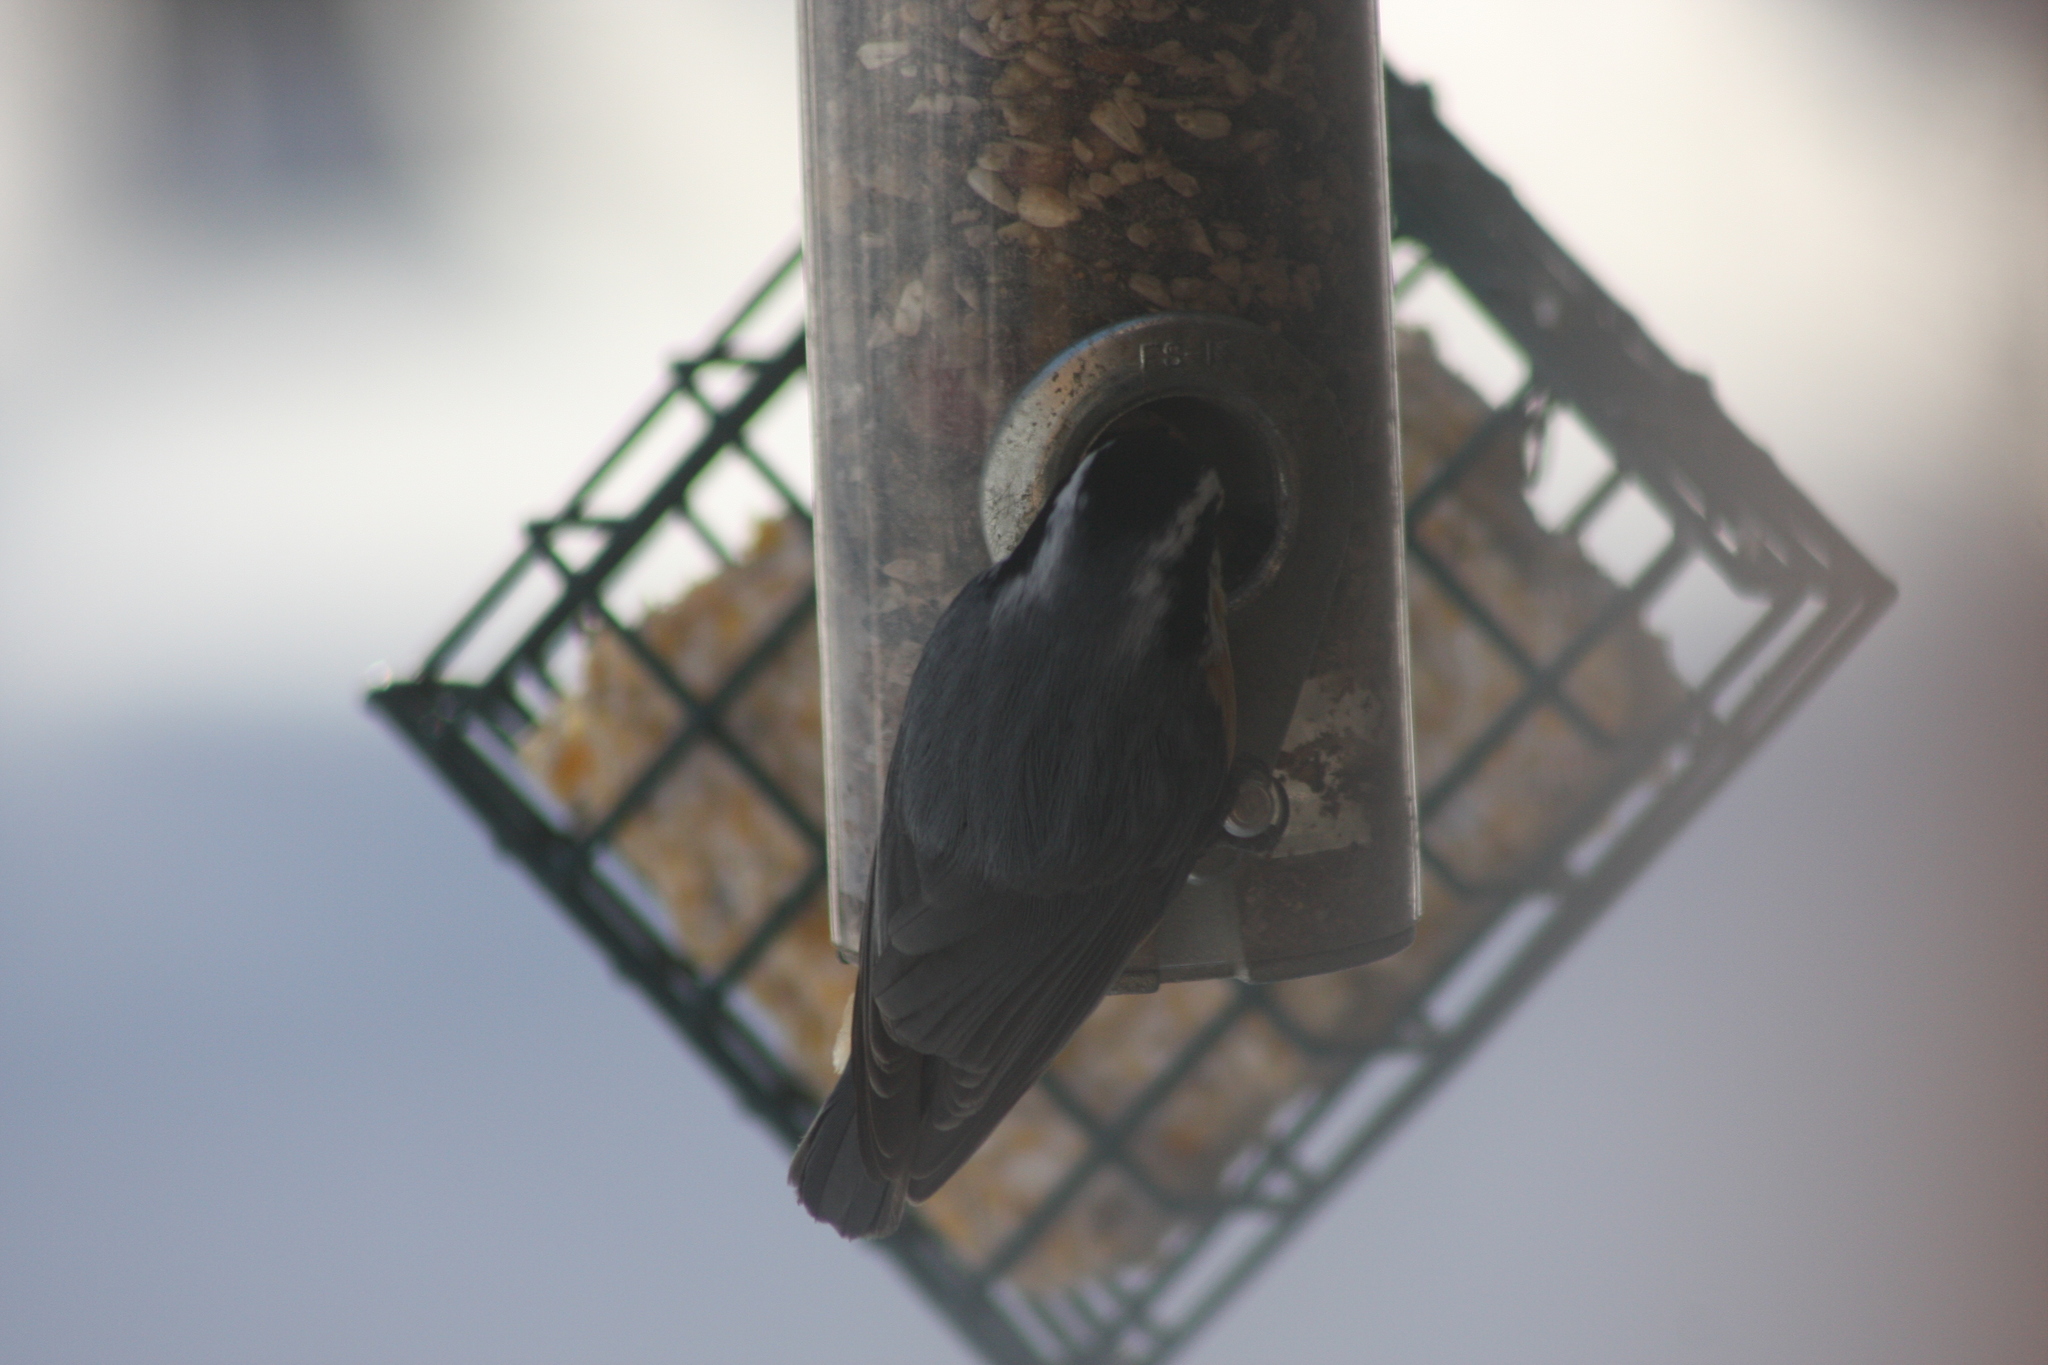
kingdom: Animalia
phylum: Chordata
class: Aves
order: Passeriformes
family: Sittidae
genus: Sitta
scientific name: Sitta canadensis
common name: Red-breasted nuthatch
